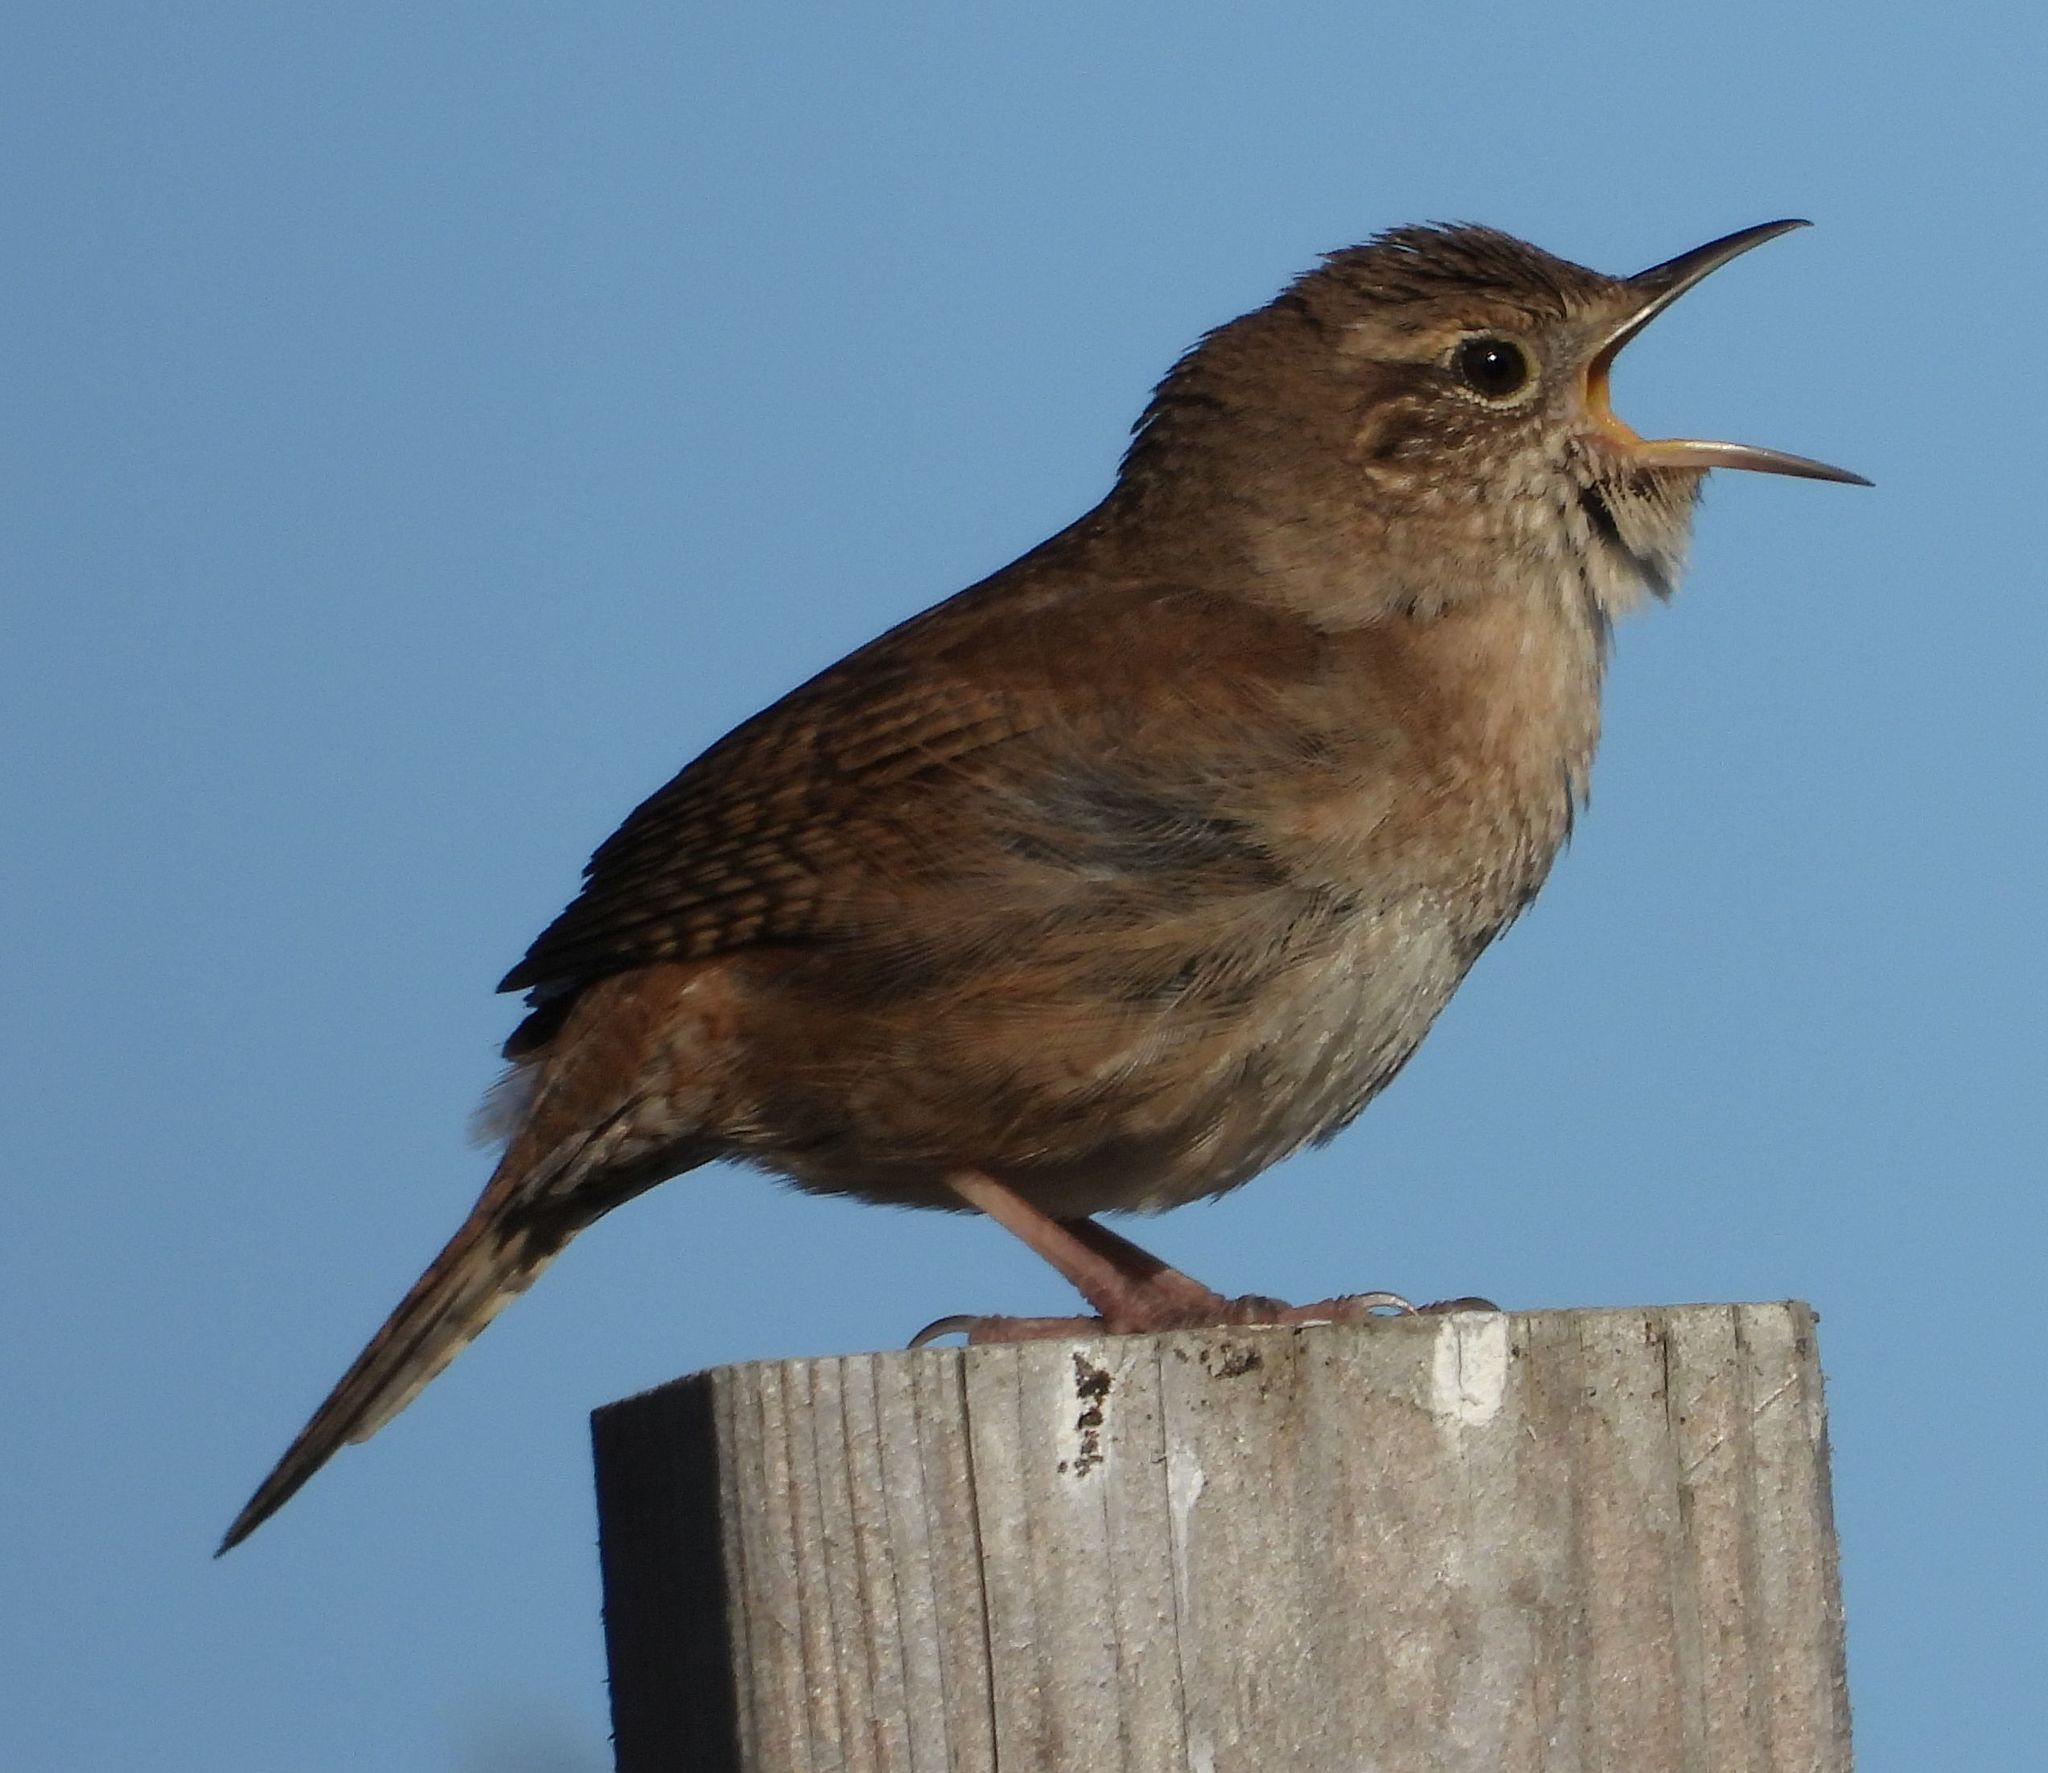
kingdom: Animalia
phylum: Chordata
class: Aves
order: Passeriformes
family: Troglodytidae
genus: Troglodytes
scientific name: Troglodytes aedon
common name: House wren
